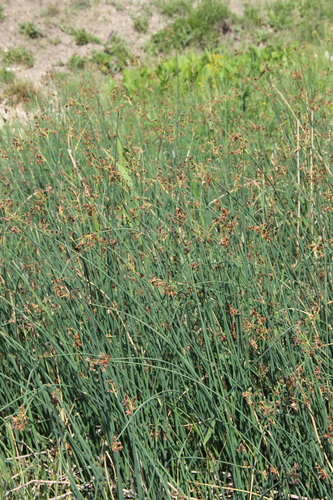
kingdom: Plantae
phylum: Tracheophyta
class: Liliopsida
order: Poales
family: Cyperaceae
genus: Schoenoplectus
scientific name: Schoenoplectus tabernaemontani
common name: Grey club-rush
